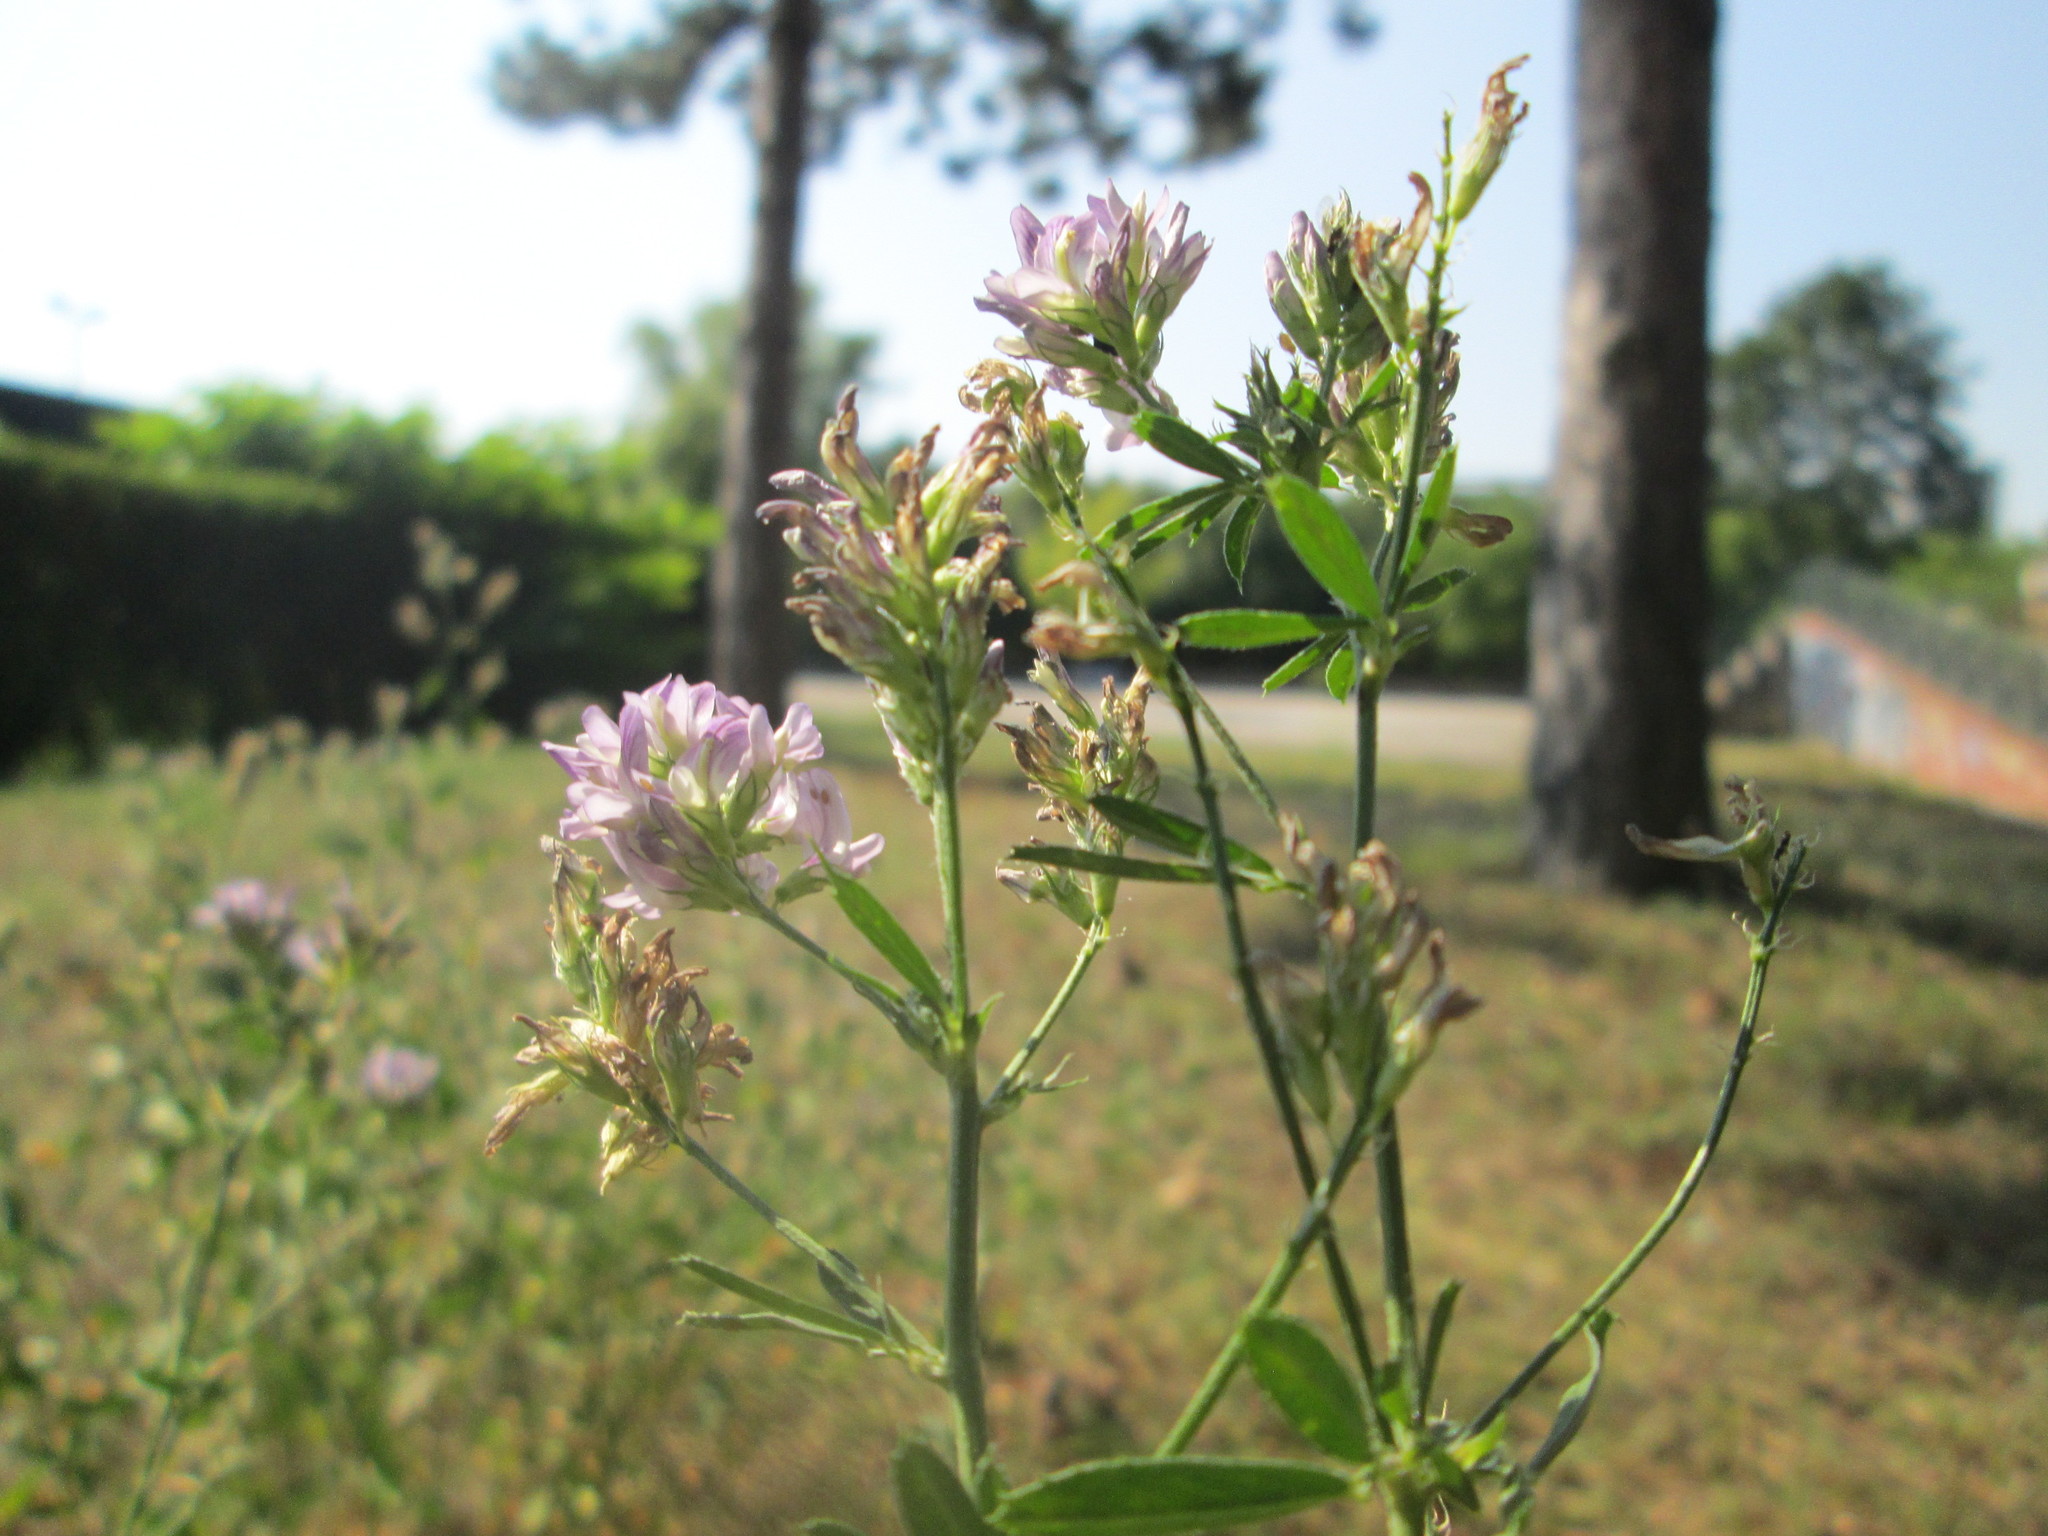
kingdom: Plantae
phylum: Tracheophyta
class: Magnoliopsida
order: Fabales
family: Fabaceae
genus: Medicago
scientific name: Medicago sativa
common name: Alfalfa
